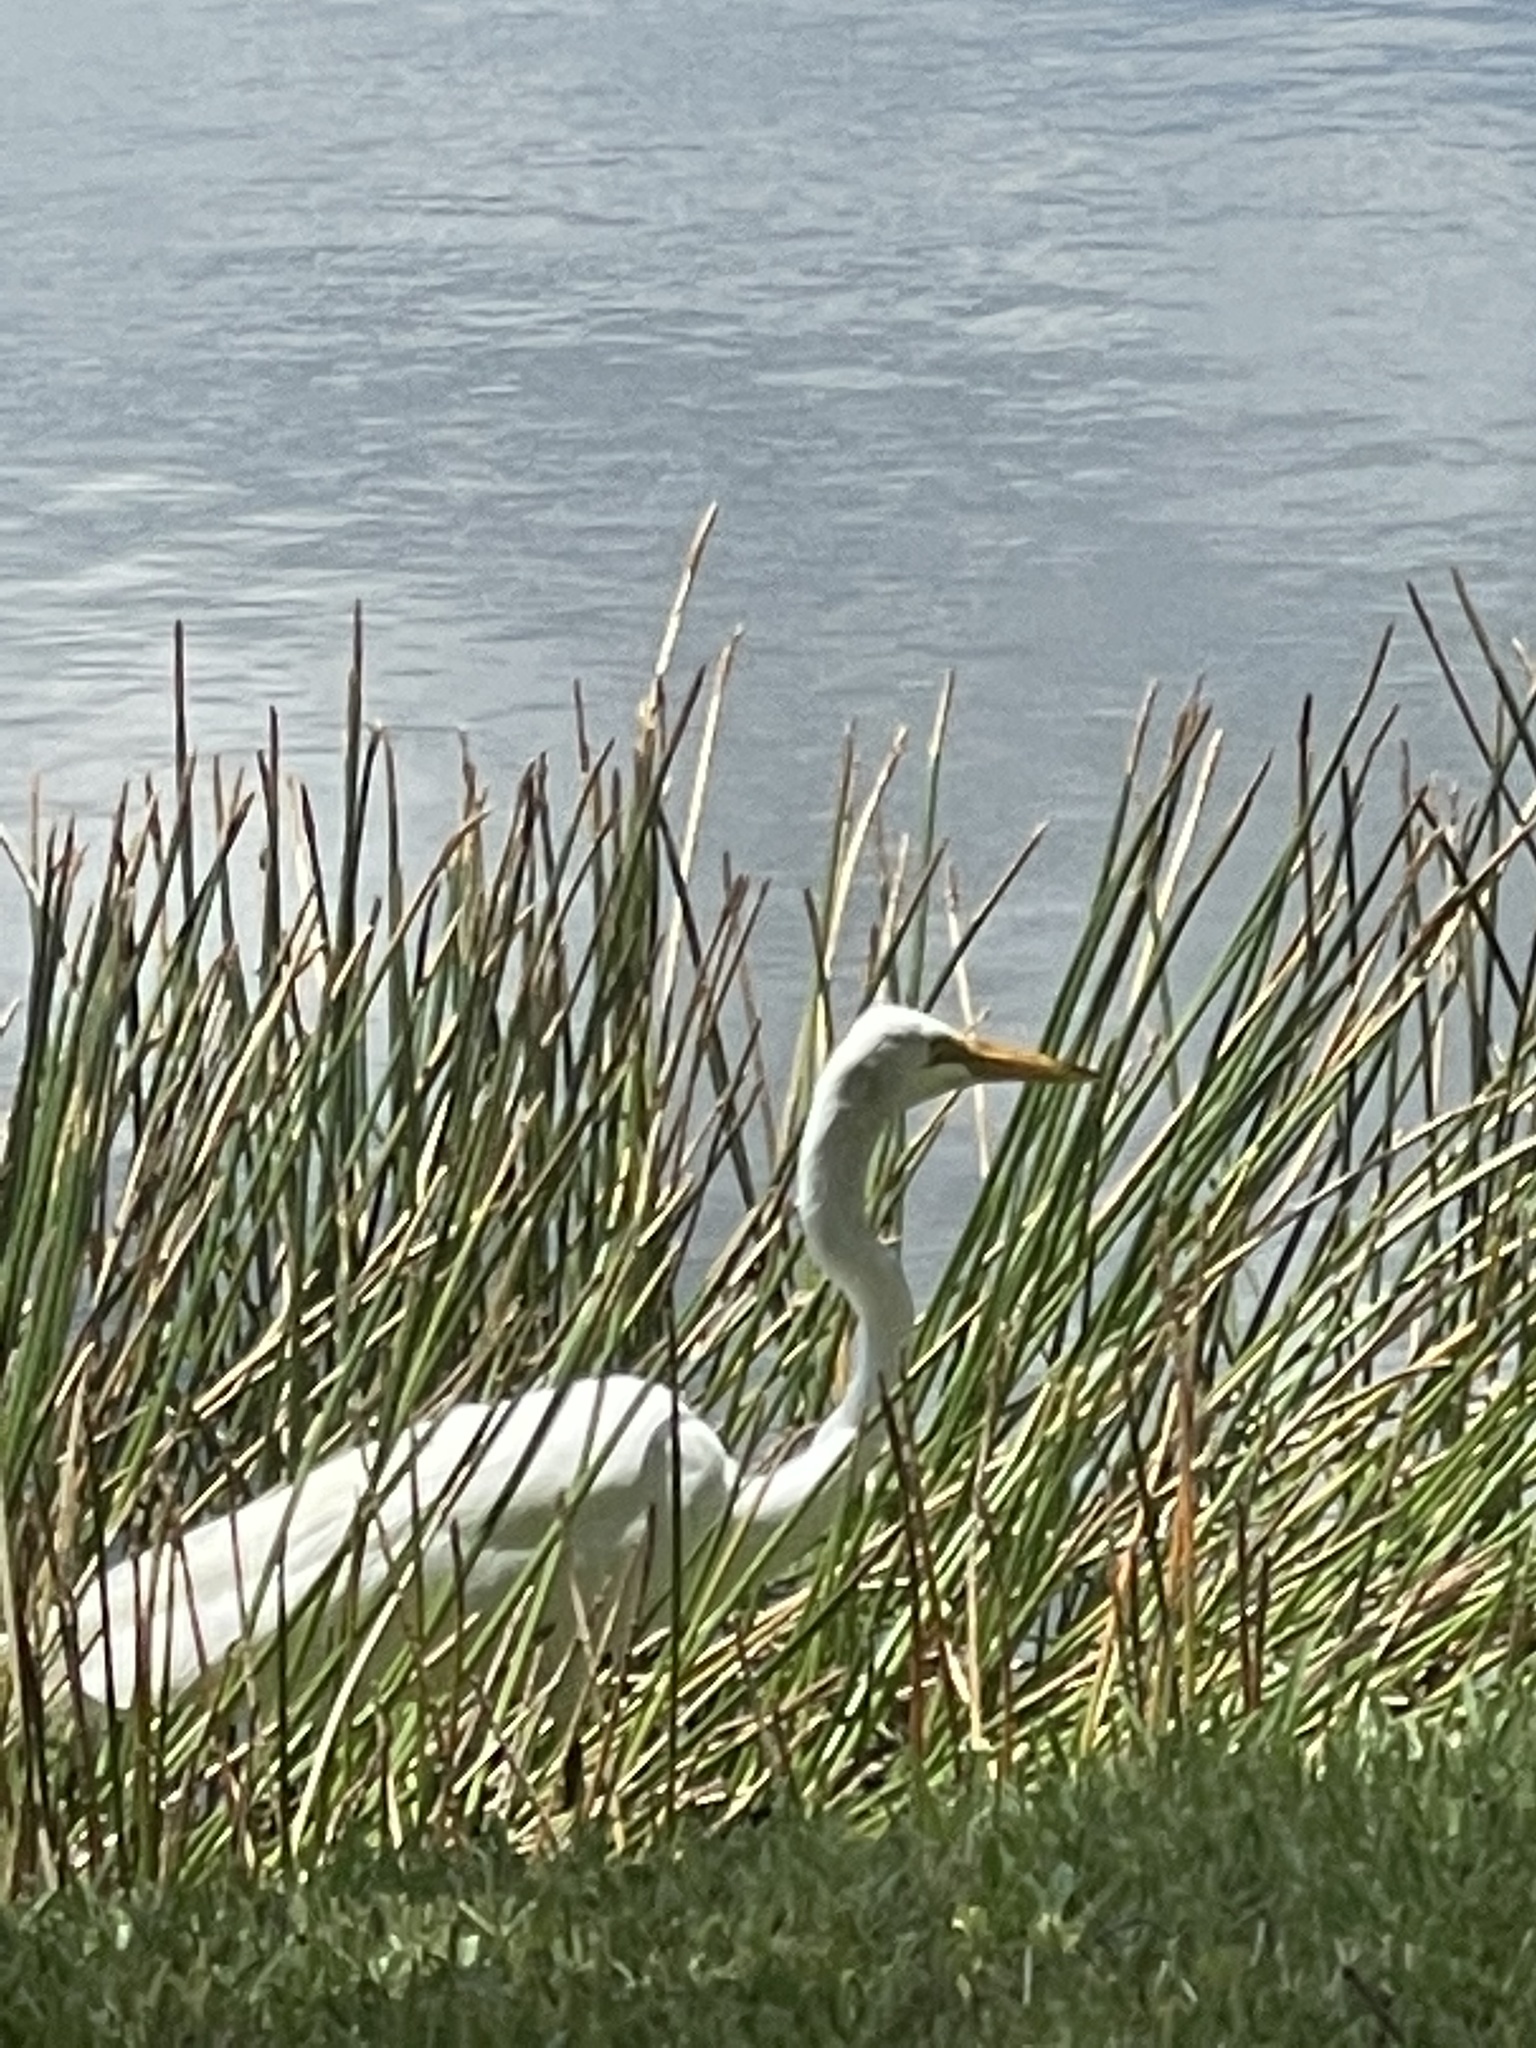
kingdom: Animalia
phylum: Chordata
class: Aves
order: Pelecaniformes
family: Ardeidae
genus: Ardea
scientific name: Ardea alba
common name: Great egret
